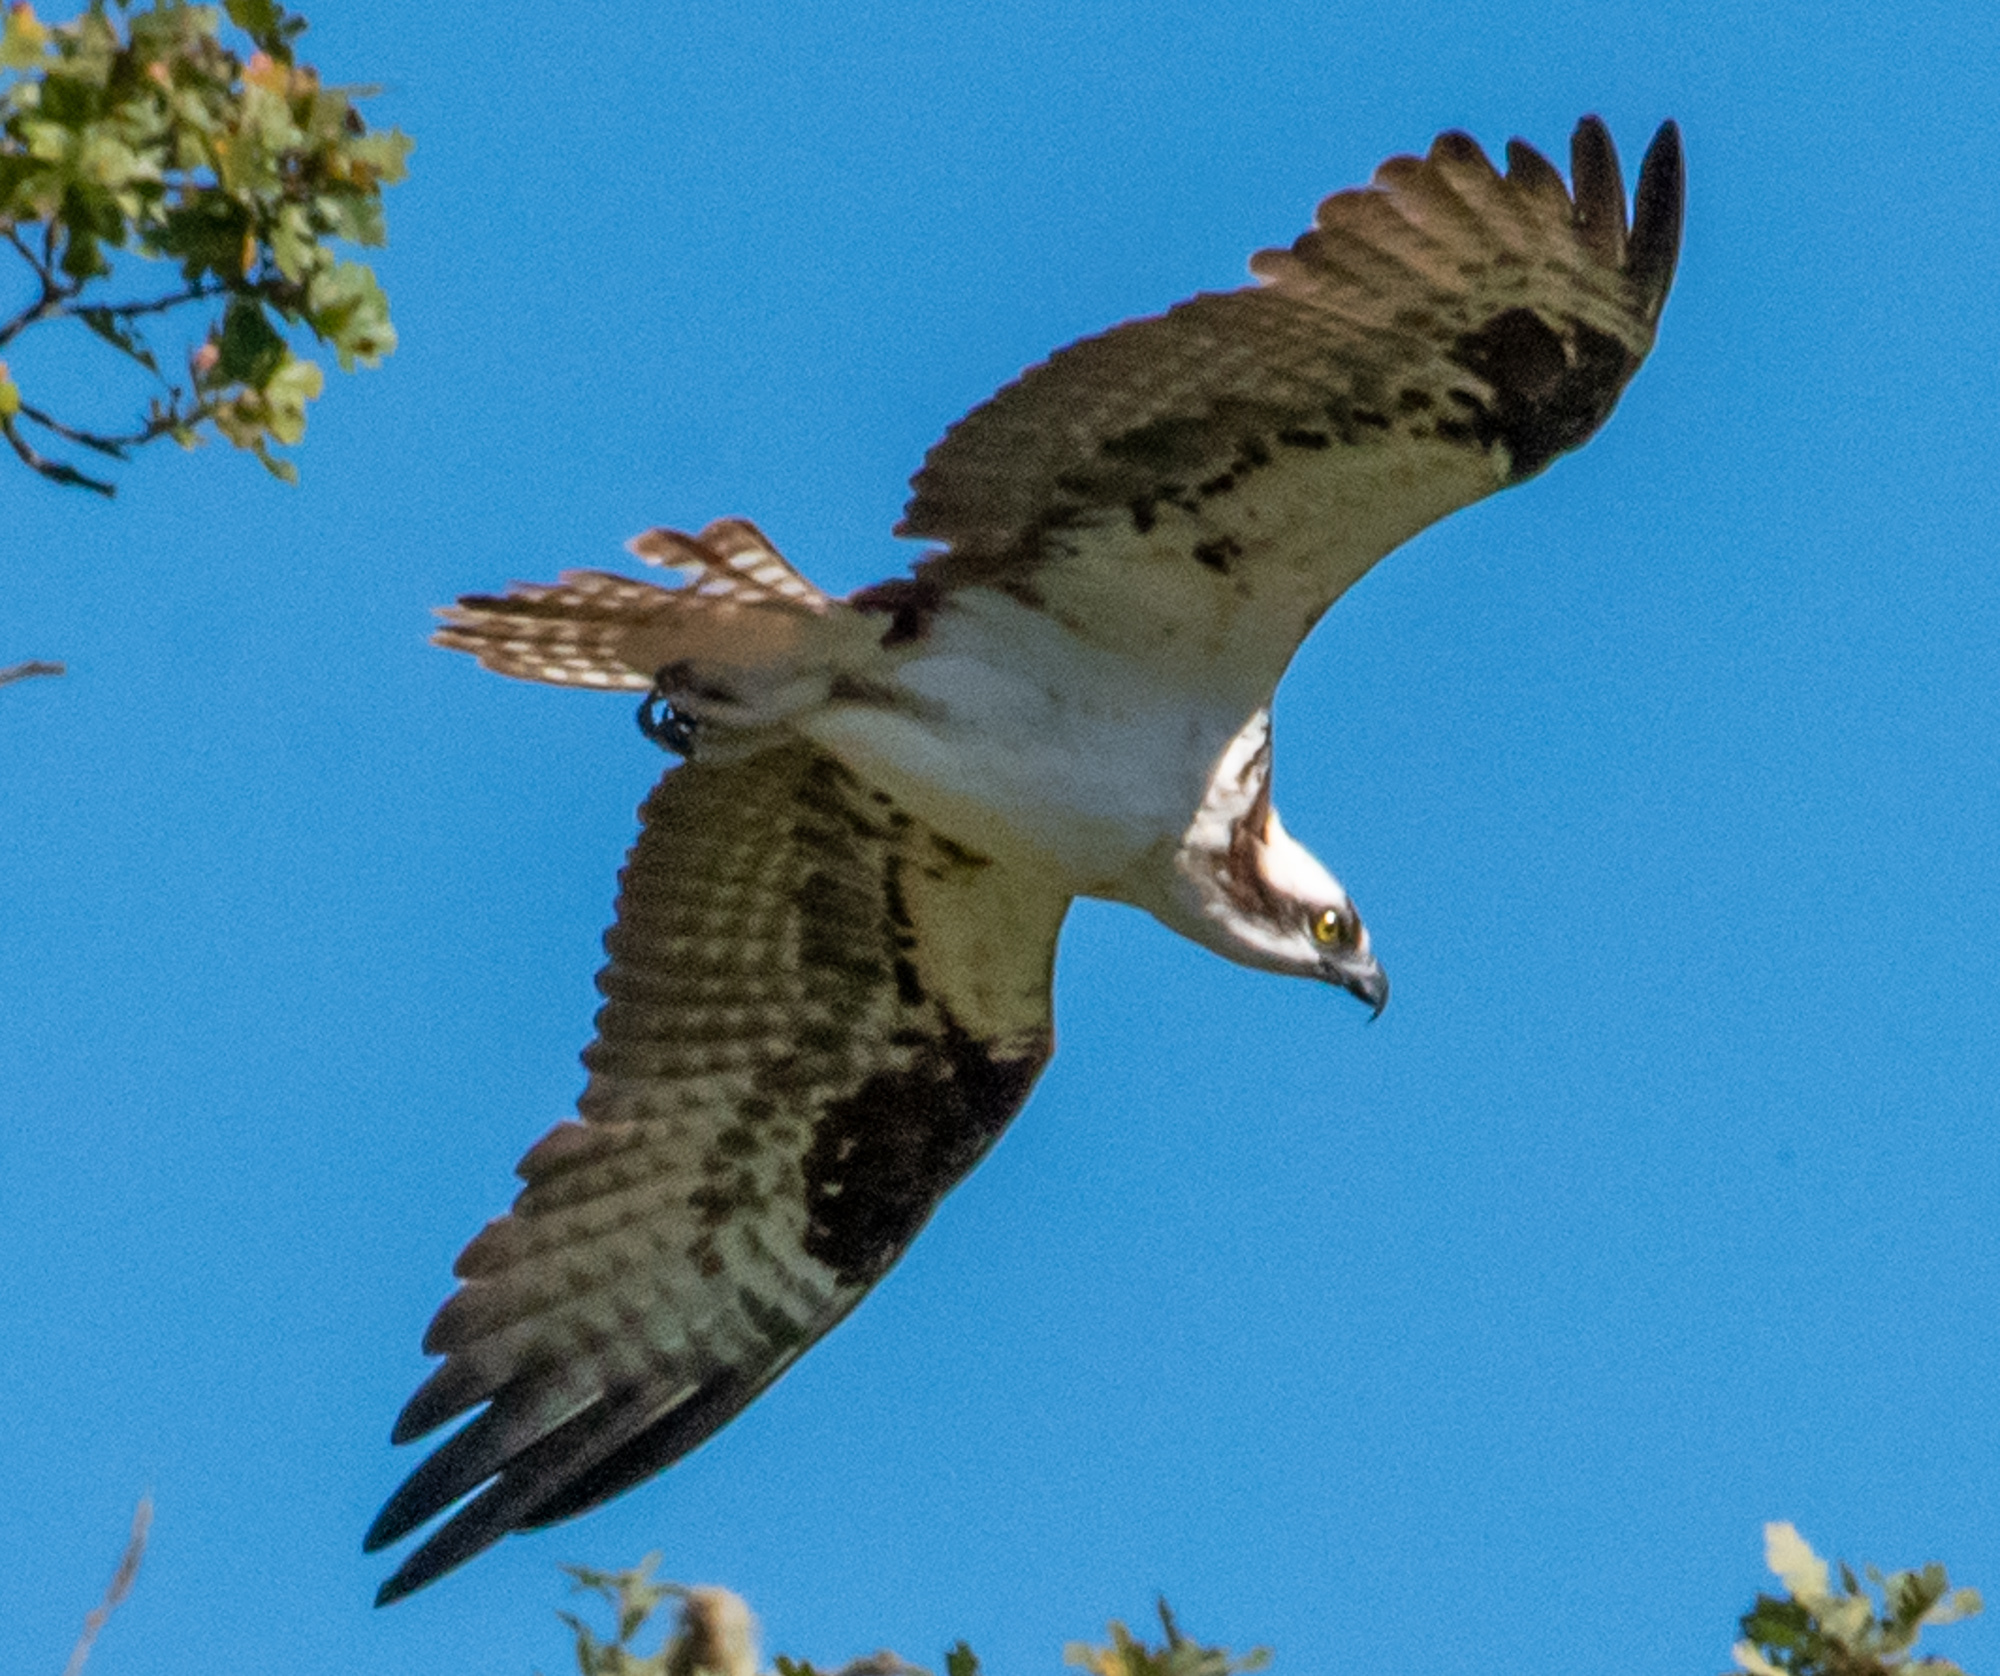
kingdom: Animalia
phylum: Chordata
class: Aves
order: Accipitriformes
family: Pandionidae
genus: Pandion
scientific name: Pandion haliaetus
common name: Osprey
